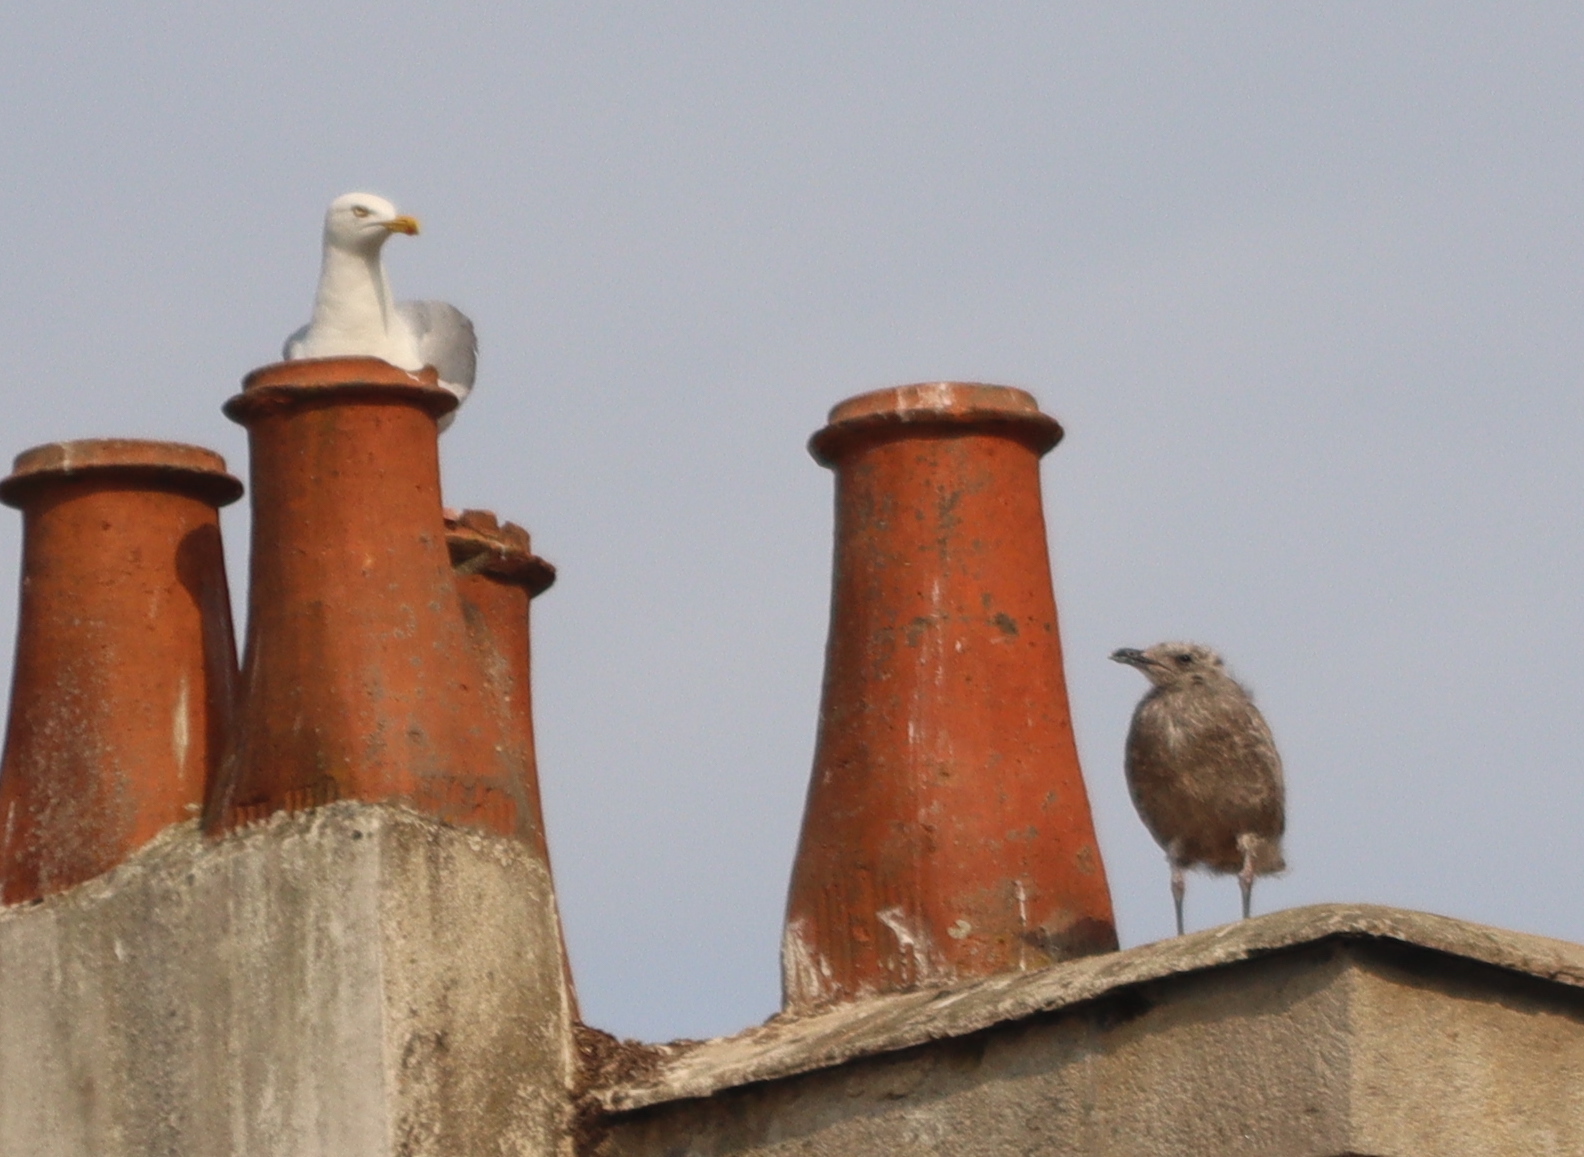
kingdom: Animalia
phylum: Chordata
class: Aves
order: Charadriiformes
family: Laridae
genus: Larus
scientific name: Larus argentatus
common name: Herring gull
